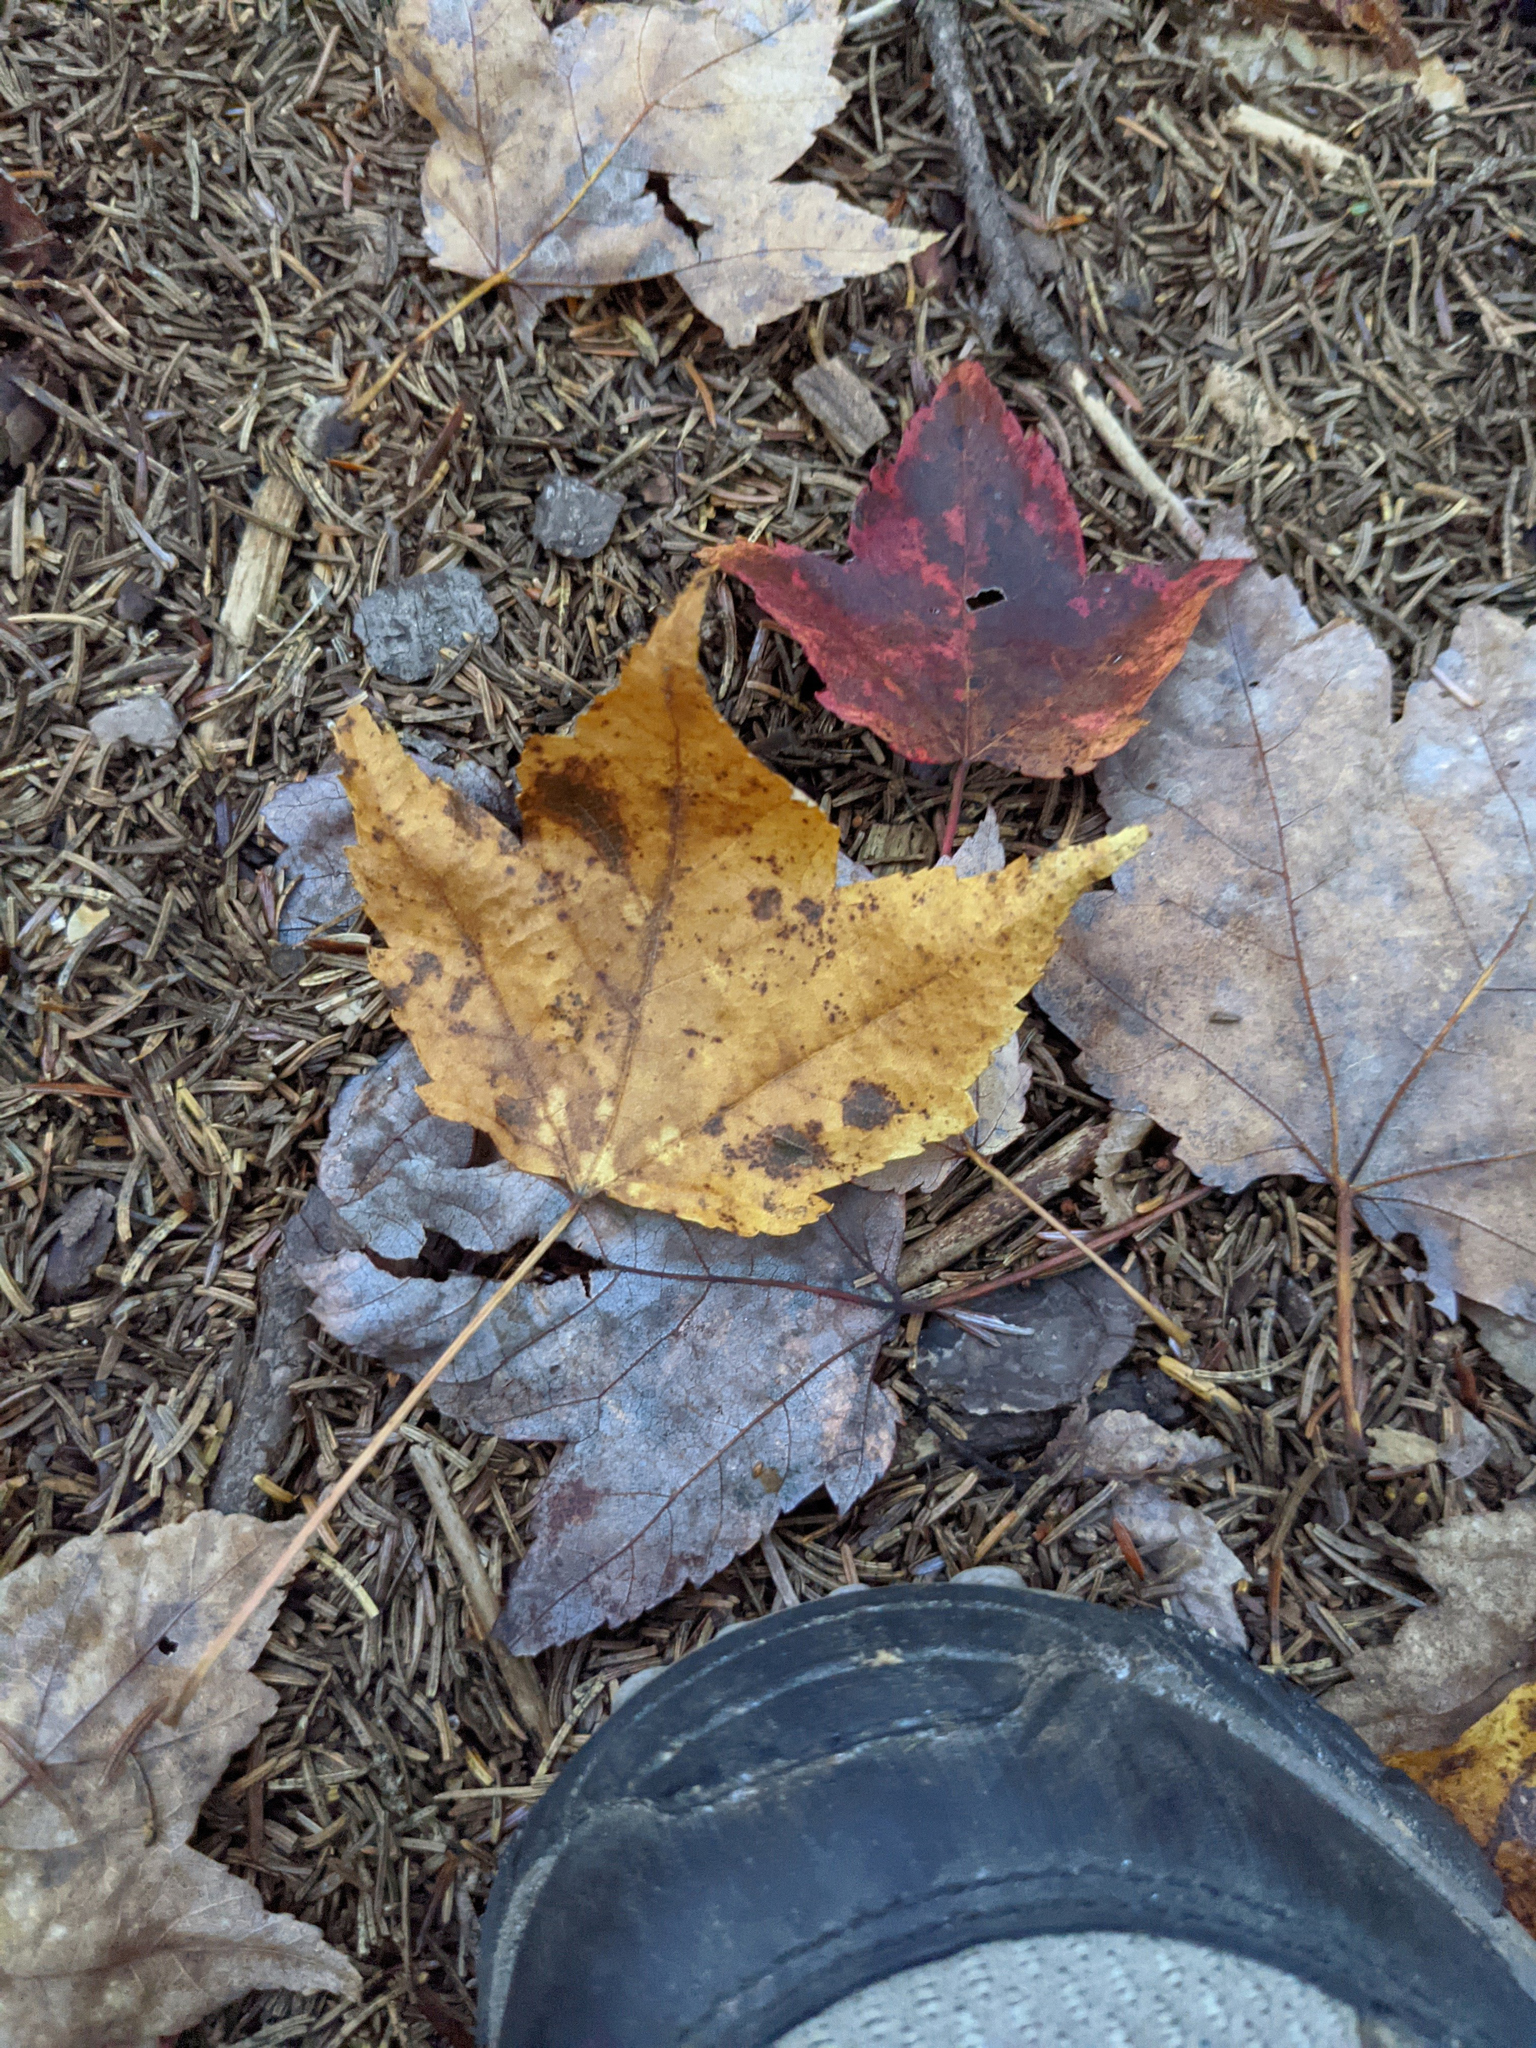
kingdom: Plantae
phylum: Tracheophyta
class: Magnoliopsida
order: Sapindales
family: Sapindaceae
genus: Acer
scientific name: Acer rubrum
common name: Red maple
